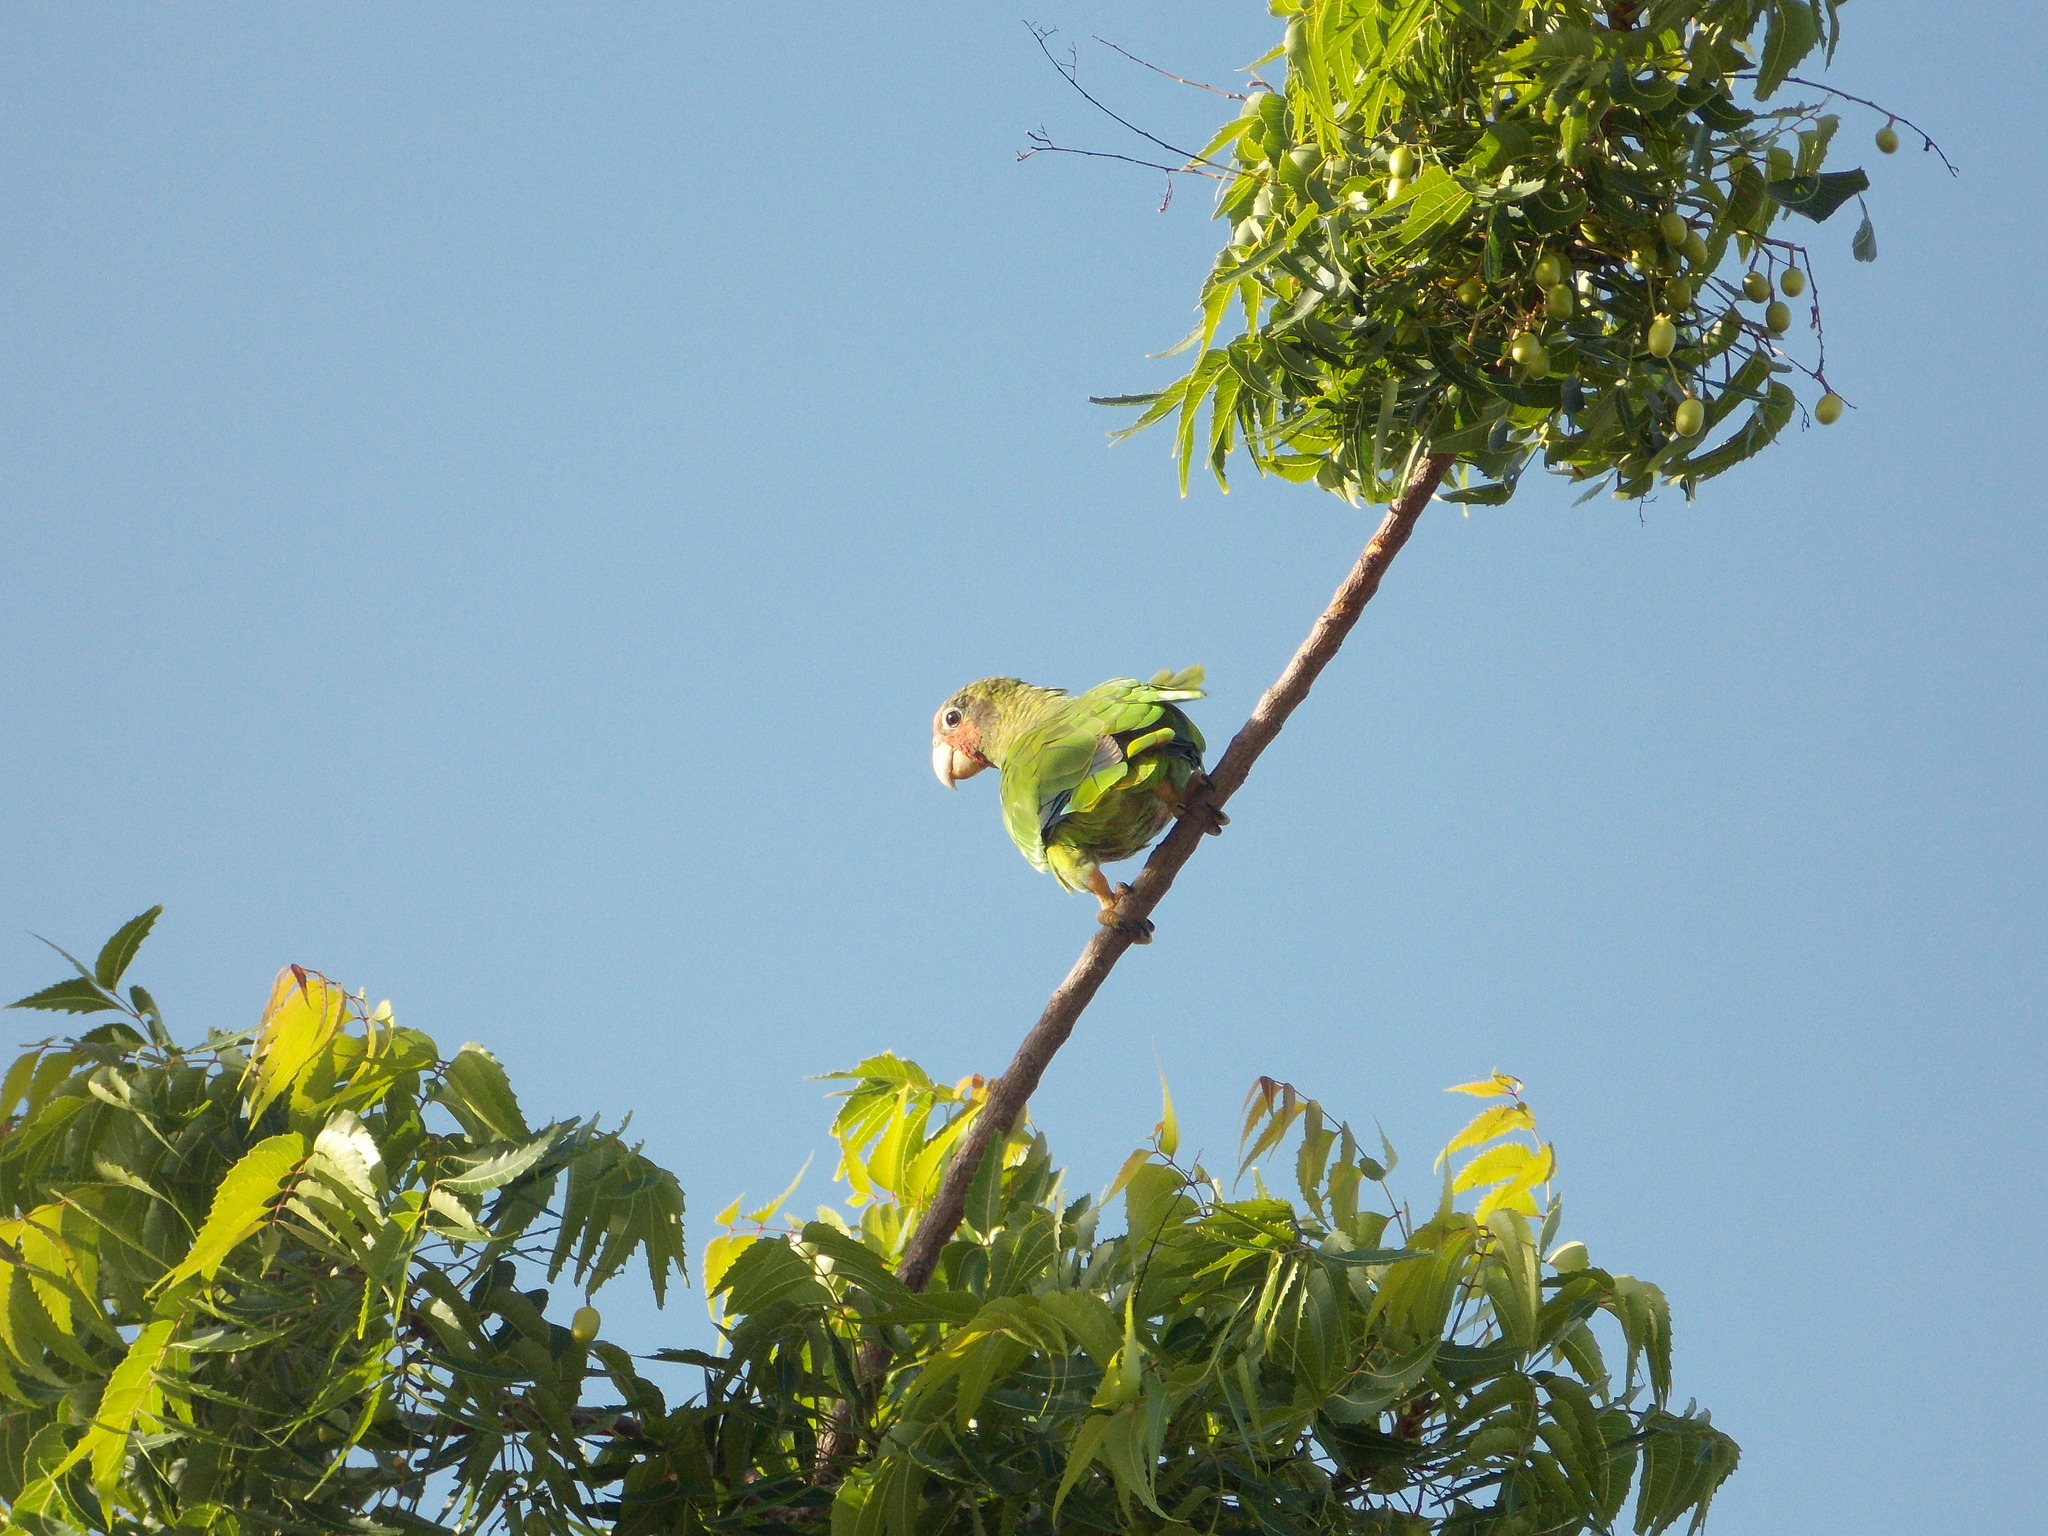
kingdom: Animalia
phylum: Chordata
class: Aves
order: Psittaciformes
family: Psittacidae
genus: Amazona
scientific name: Amazona leucocephala
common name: Cuban amazon
